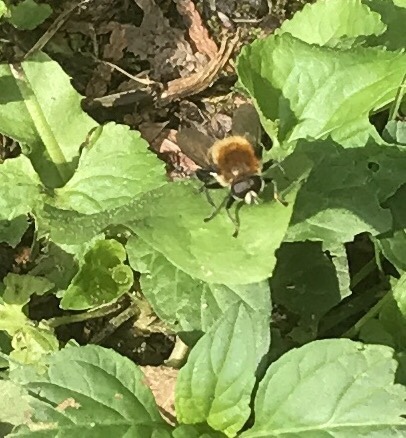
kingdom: Animalia
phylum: Arthropoda
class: Insecta
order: Diptera
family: Syrphidae
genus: Merodon
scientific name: Merodon equestris
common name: Greater bulb-fly
